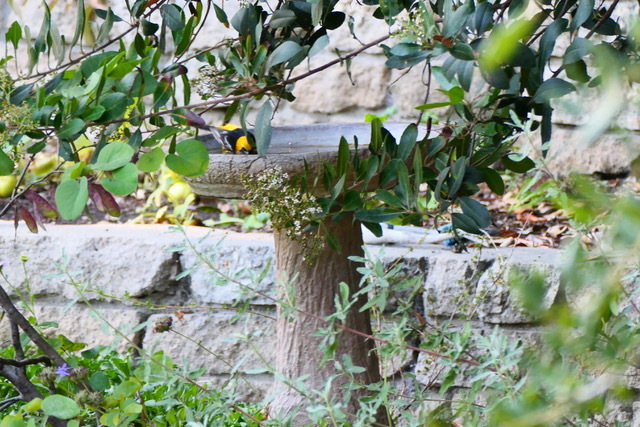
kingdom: Animalia
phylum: Chordata
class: Aves
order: Passeriformes
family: Icteridae
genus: Icterus
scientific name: Icterus cucullatus
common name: Hooded oriole
